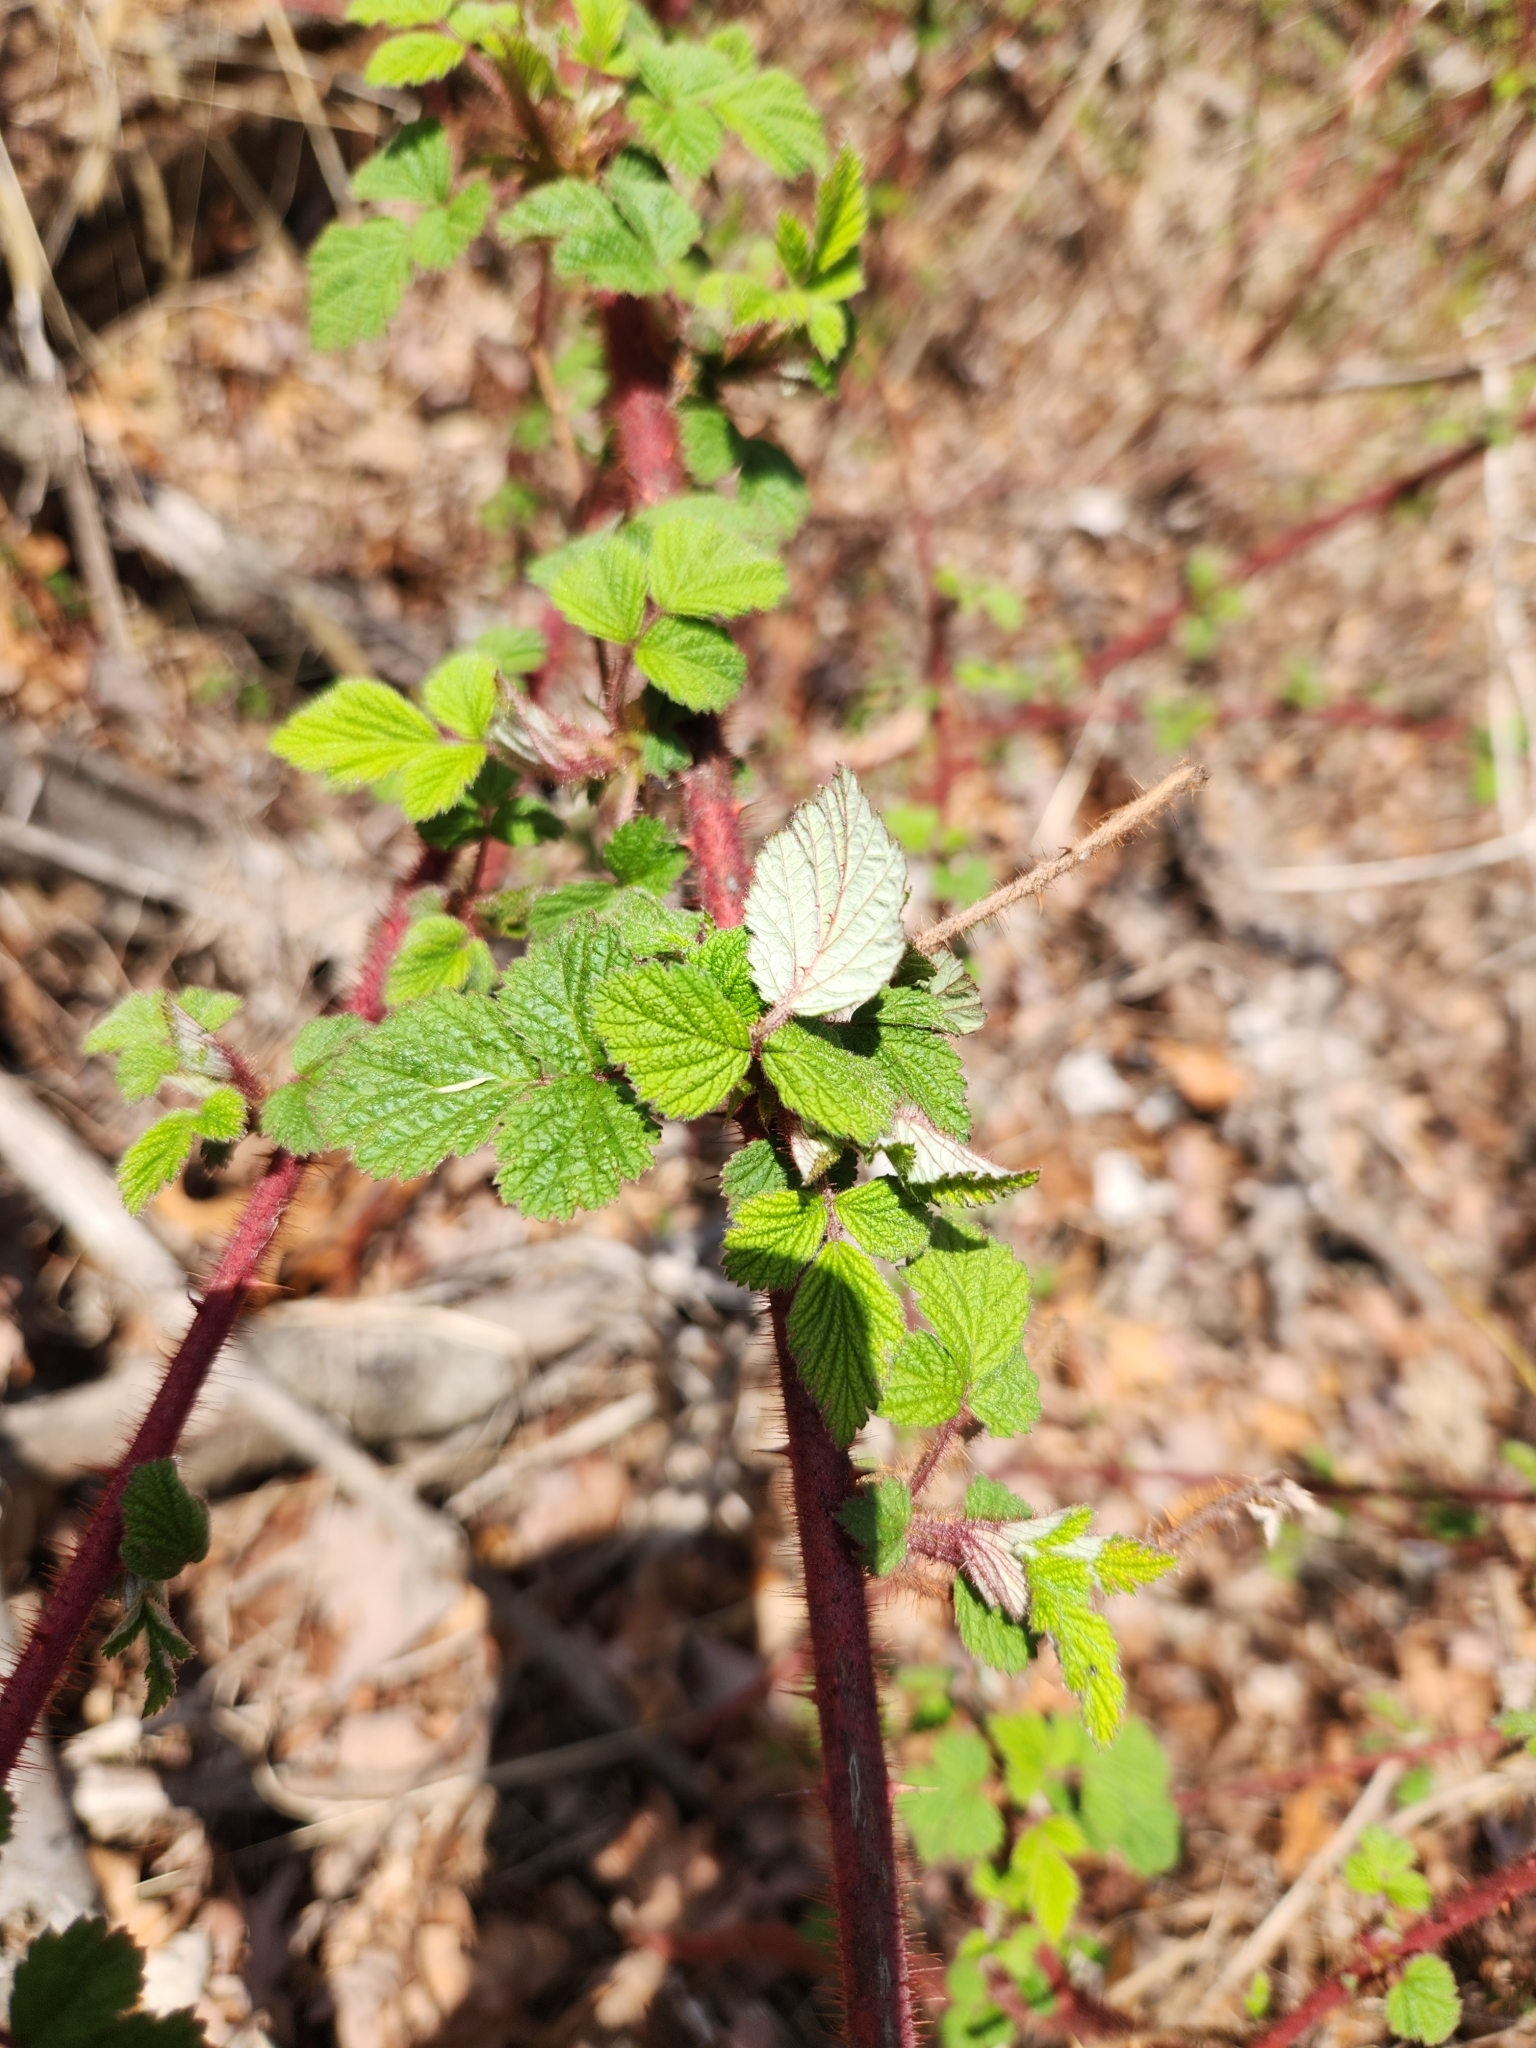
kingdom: Plantae
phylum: Tracheophyta
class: Magnoliopsida
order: Rosales
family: Rosaceae
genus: Rubus
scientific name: Rubus phoenicolasius
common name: Japanese wineberry
